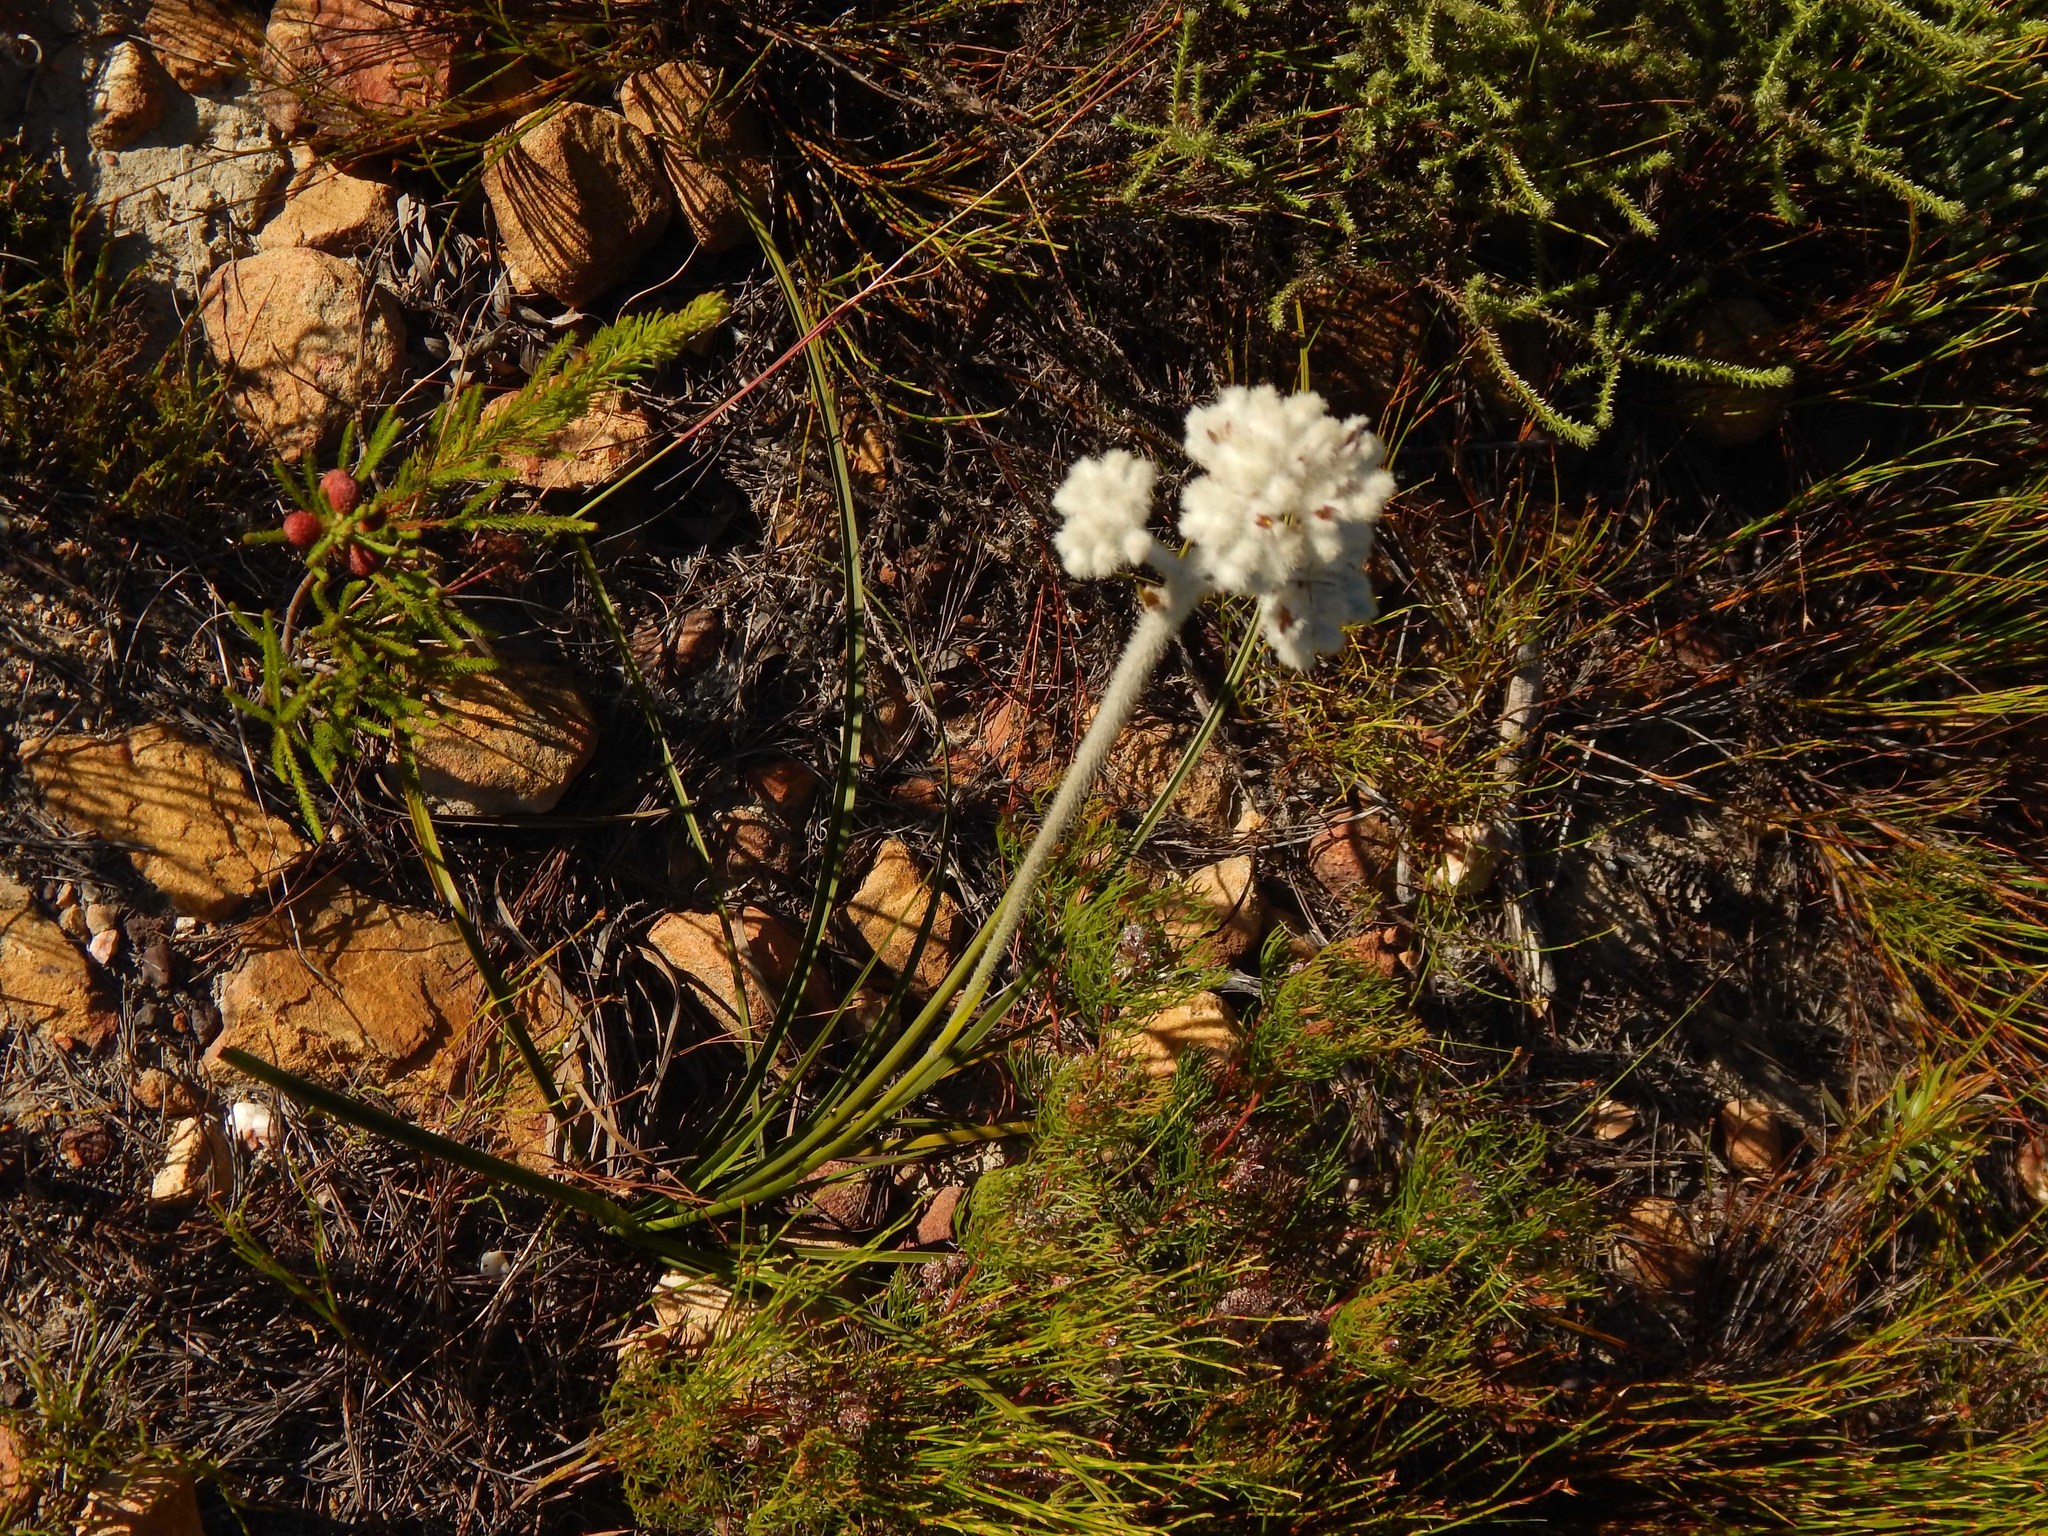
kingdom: Plantae
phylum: Tracheophyta
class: Liliopsida
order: Asparagales
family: Lanariaceae
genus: Lanaria
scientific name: Lanaria lanata
